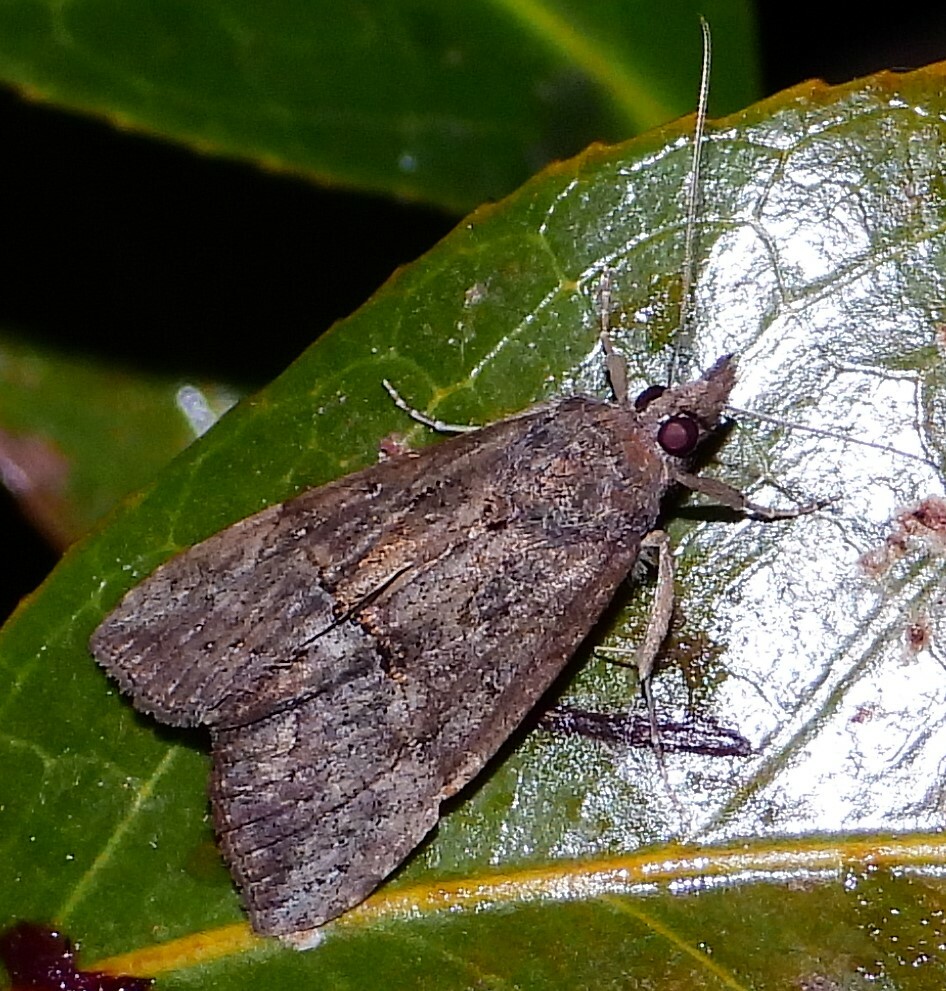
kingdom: Animalia
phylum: Arthropoda
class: Insecta
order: Lepidoptera
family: Erebidae
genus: Hypena
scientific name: Hypena scabra
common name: Green cloverworm
